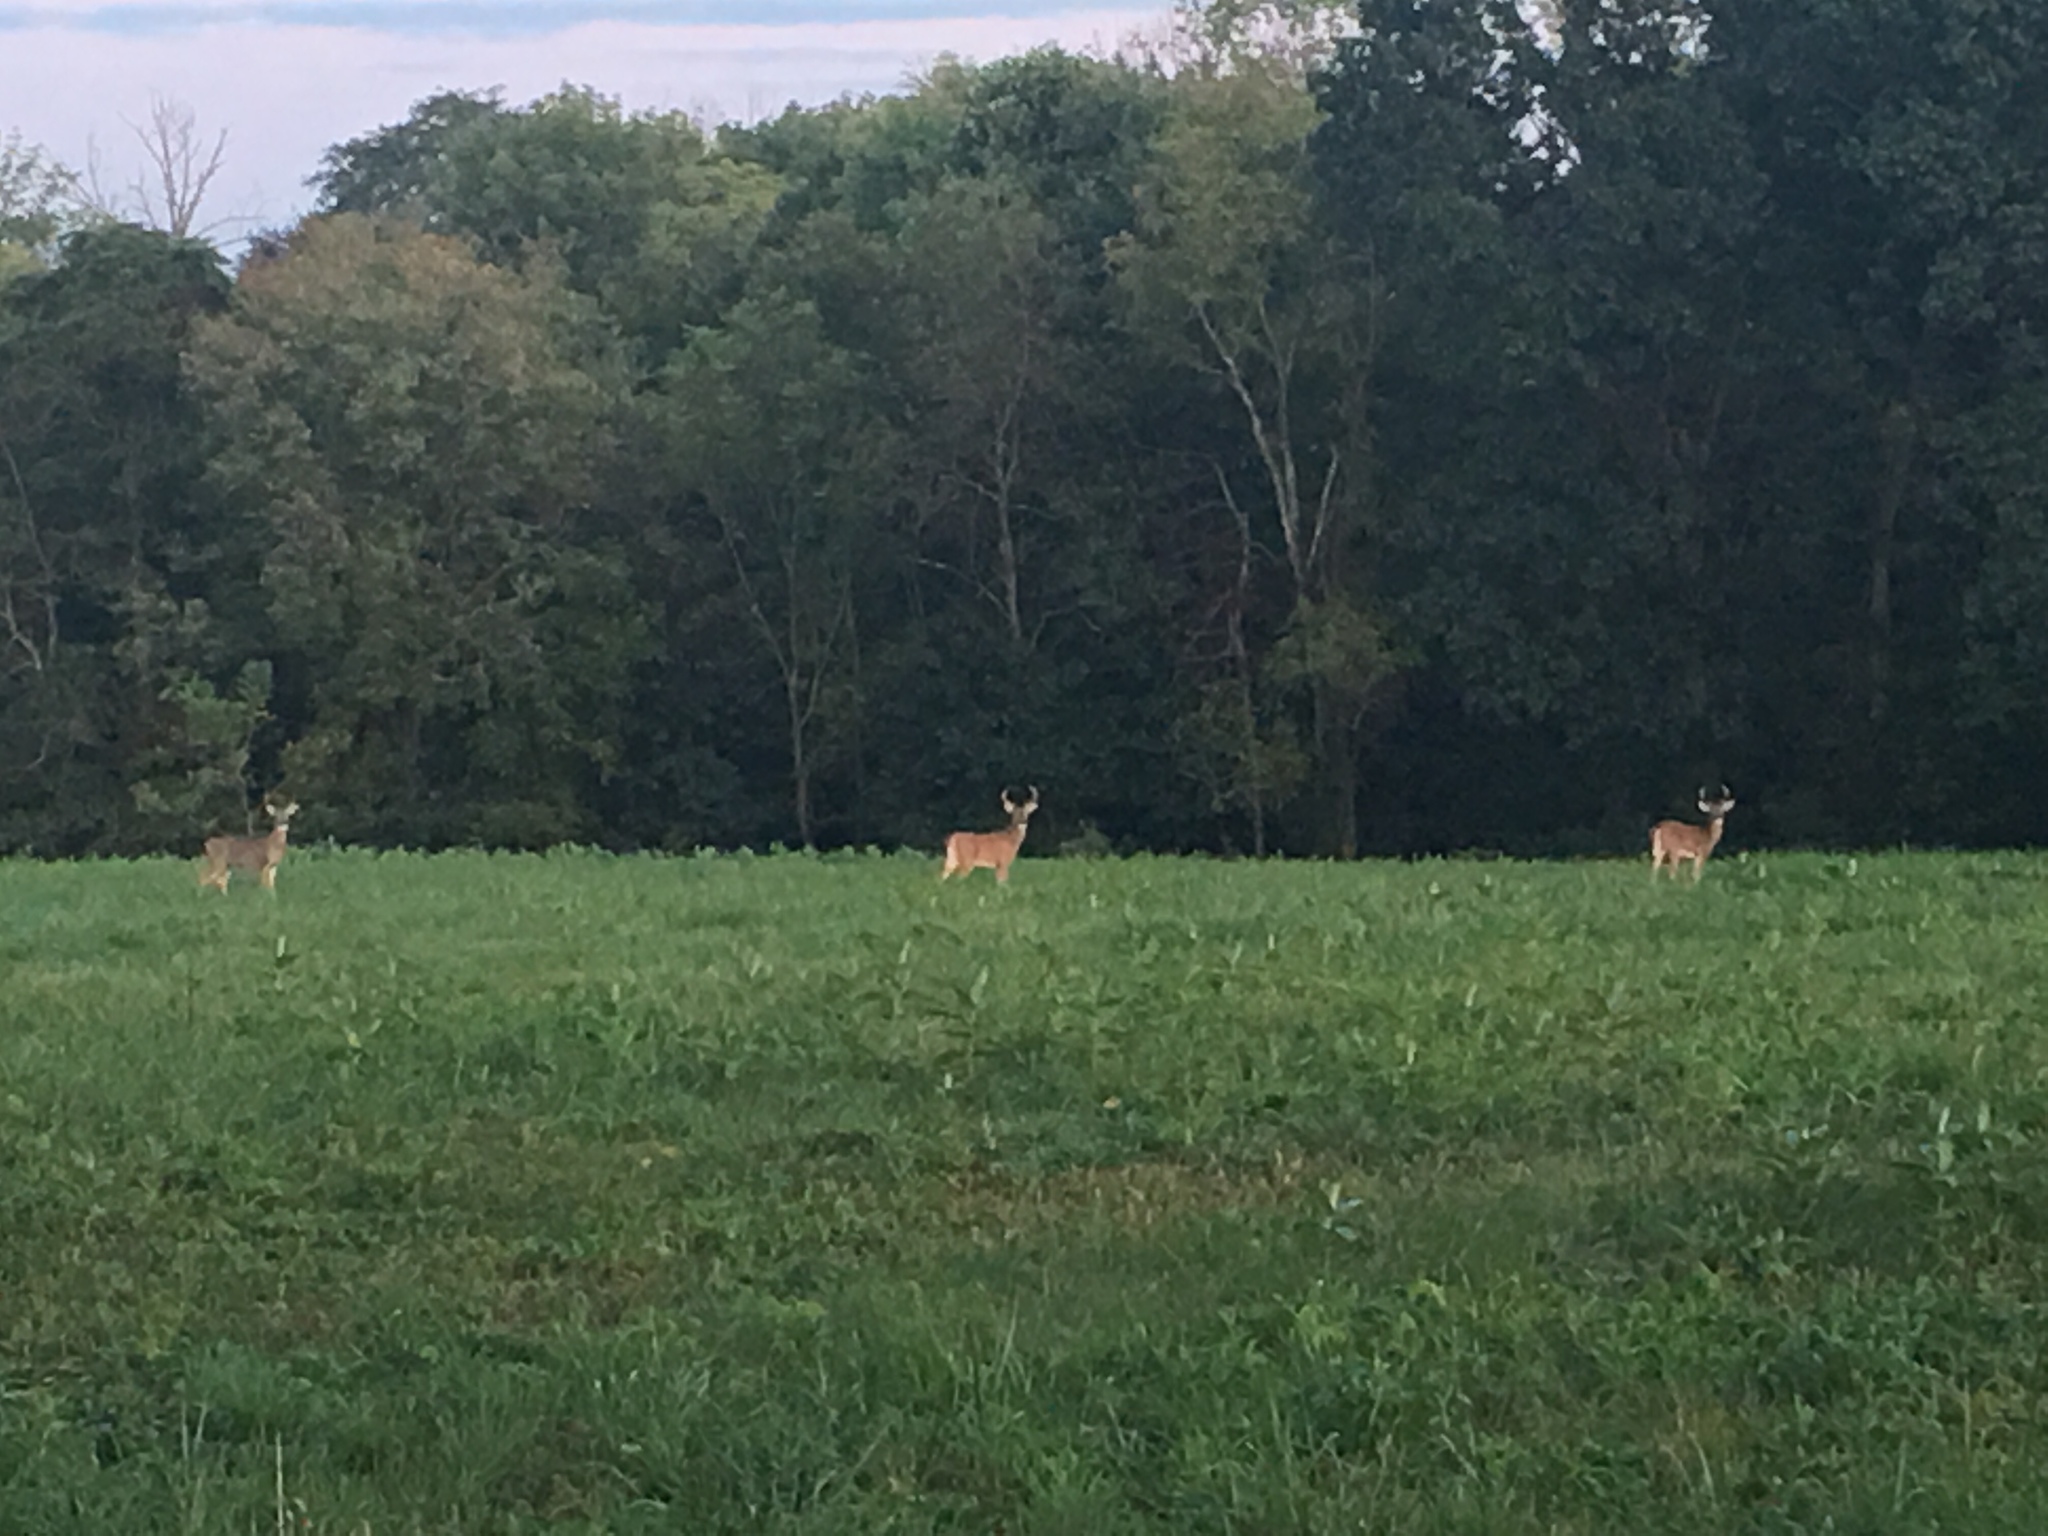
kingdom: Animalia
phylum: Chordata
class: Mammalia
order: Artiodactyla
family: Cervidae
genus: Odocoileus
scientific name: Odocoileus virginianus
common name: White-tailed deer
